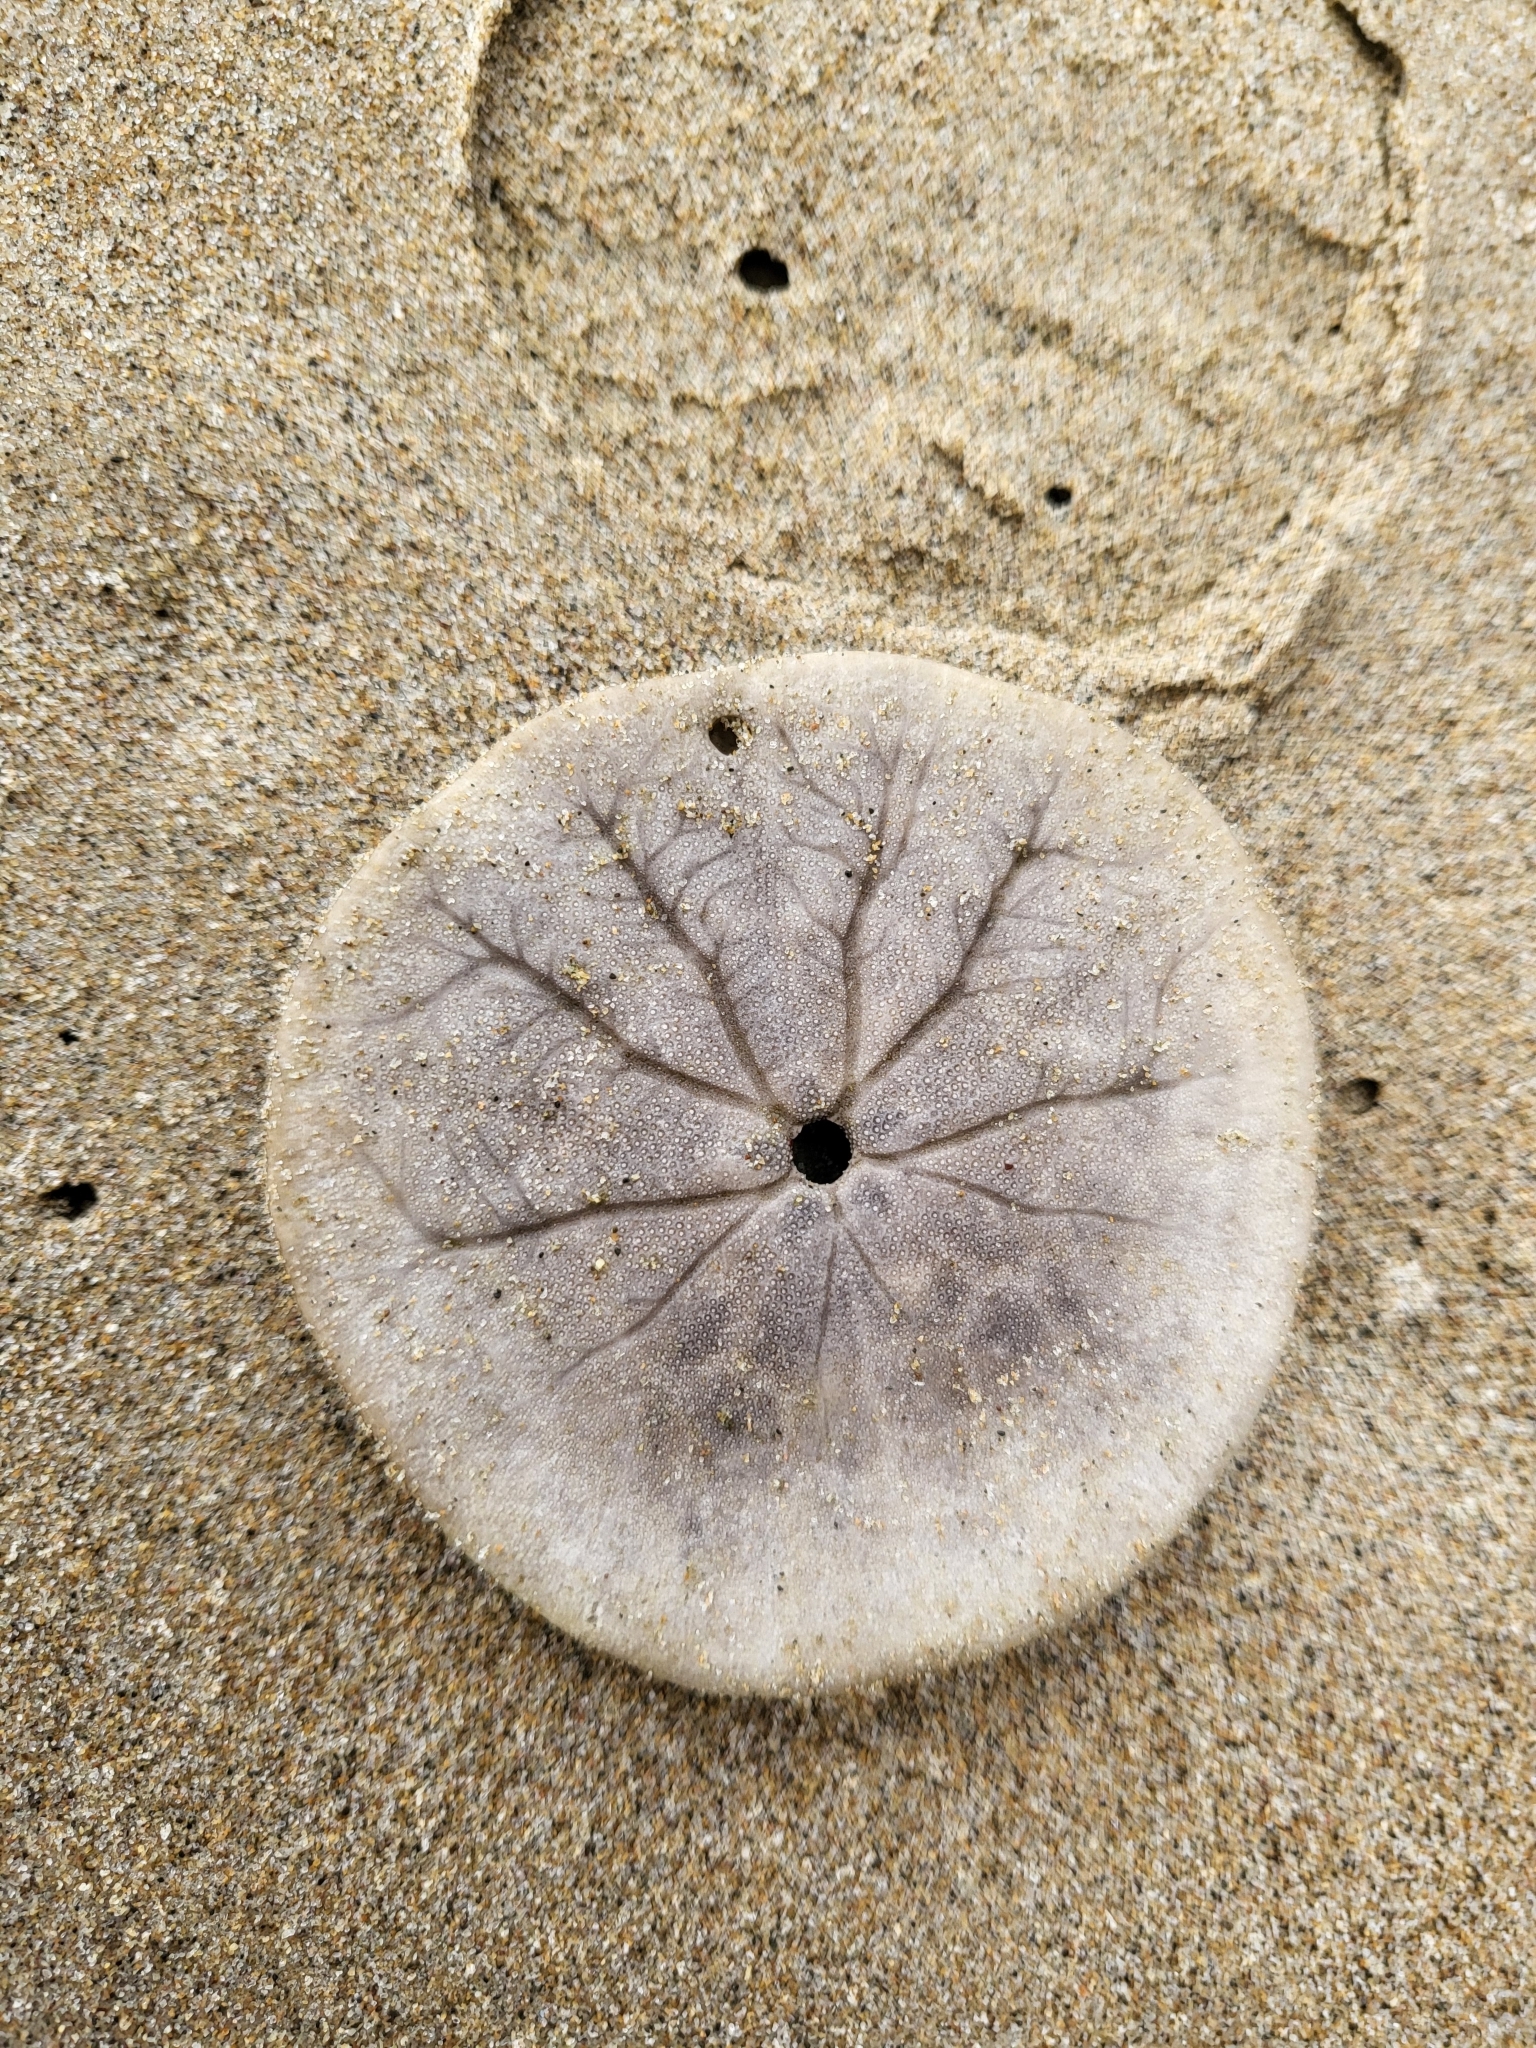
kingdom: Animalia
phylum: Echinodermata
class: Echinoidea
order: Echinolampadacea
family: Dendrasteridae
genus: Dendraster
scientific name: Dendraster excentricus
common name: Eccentric sand dollar sea urchin
